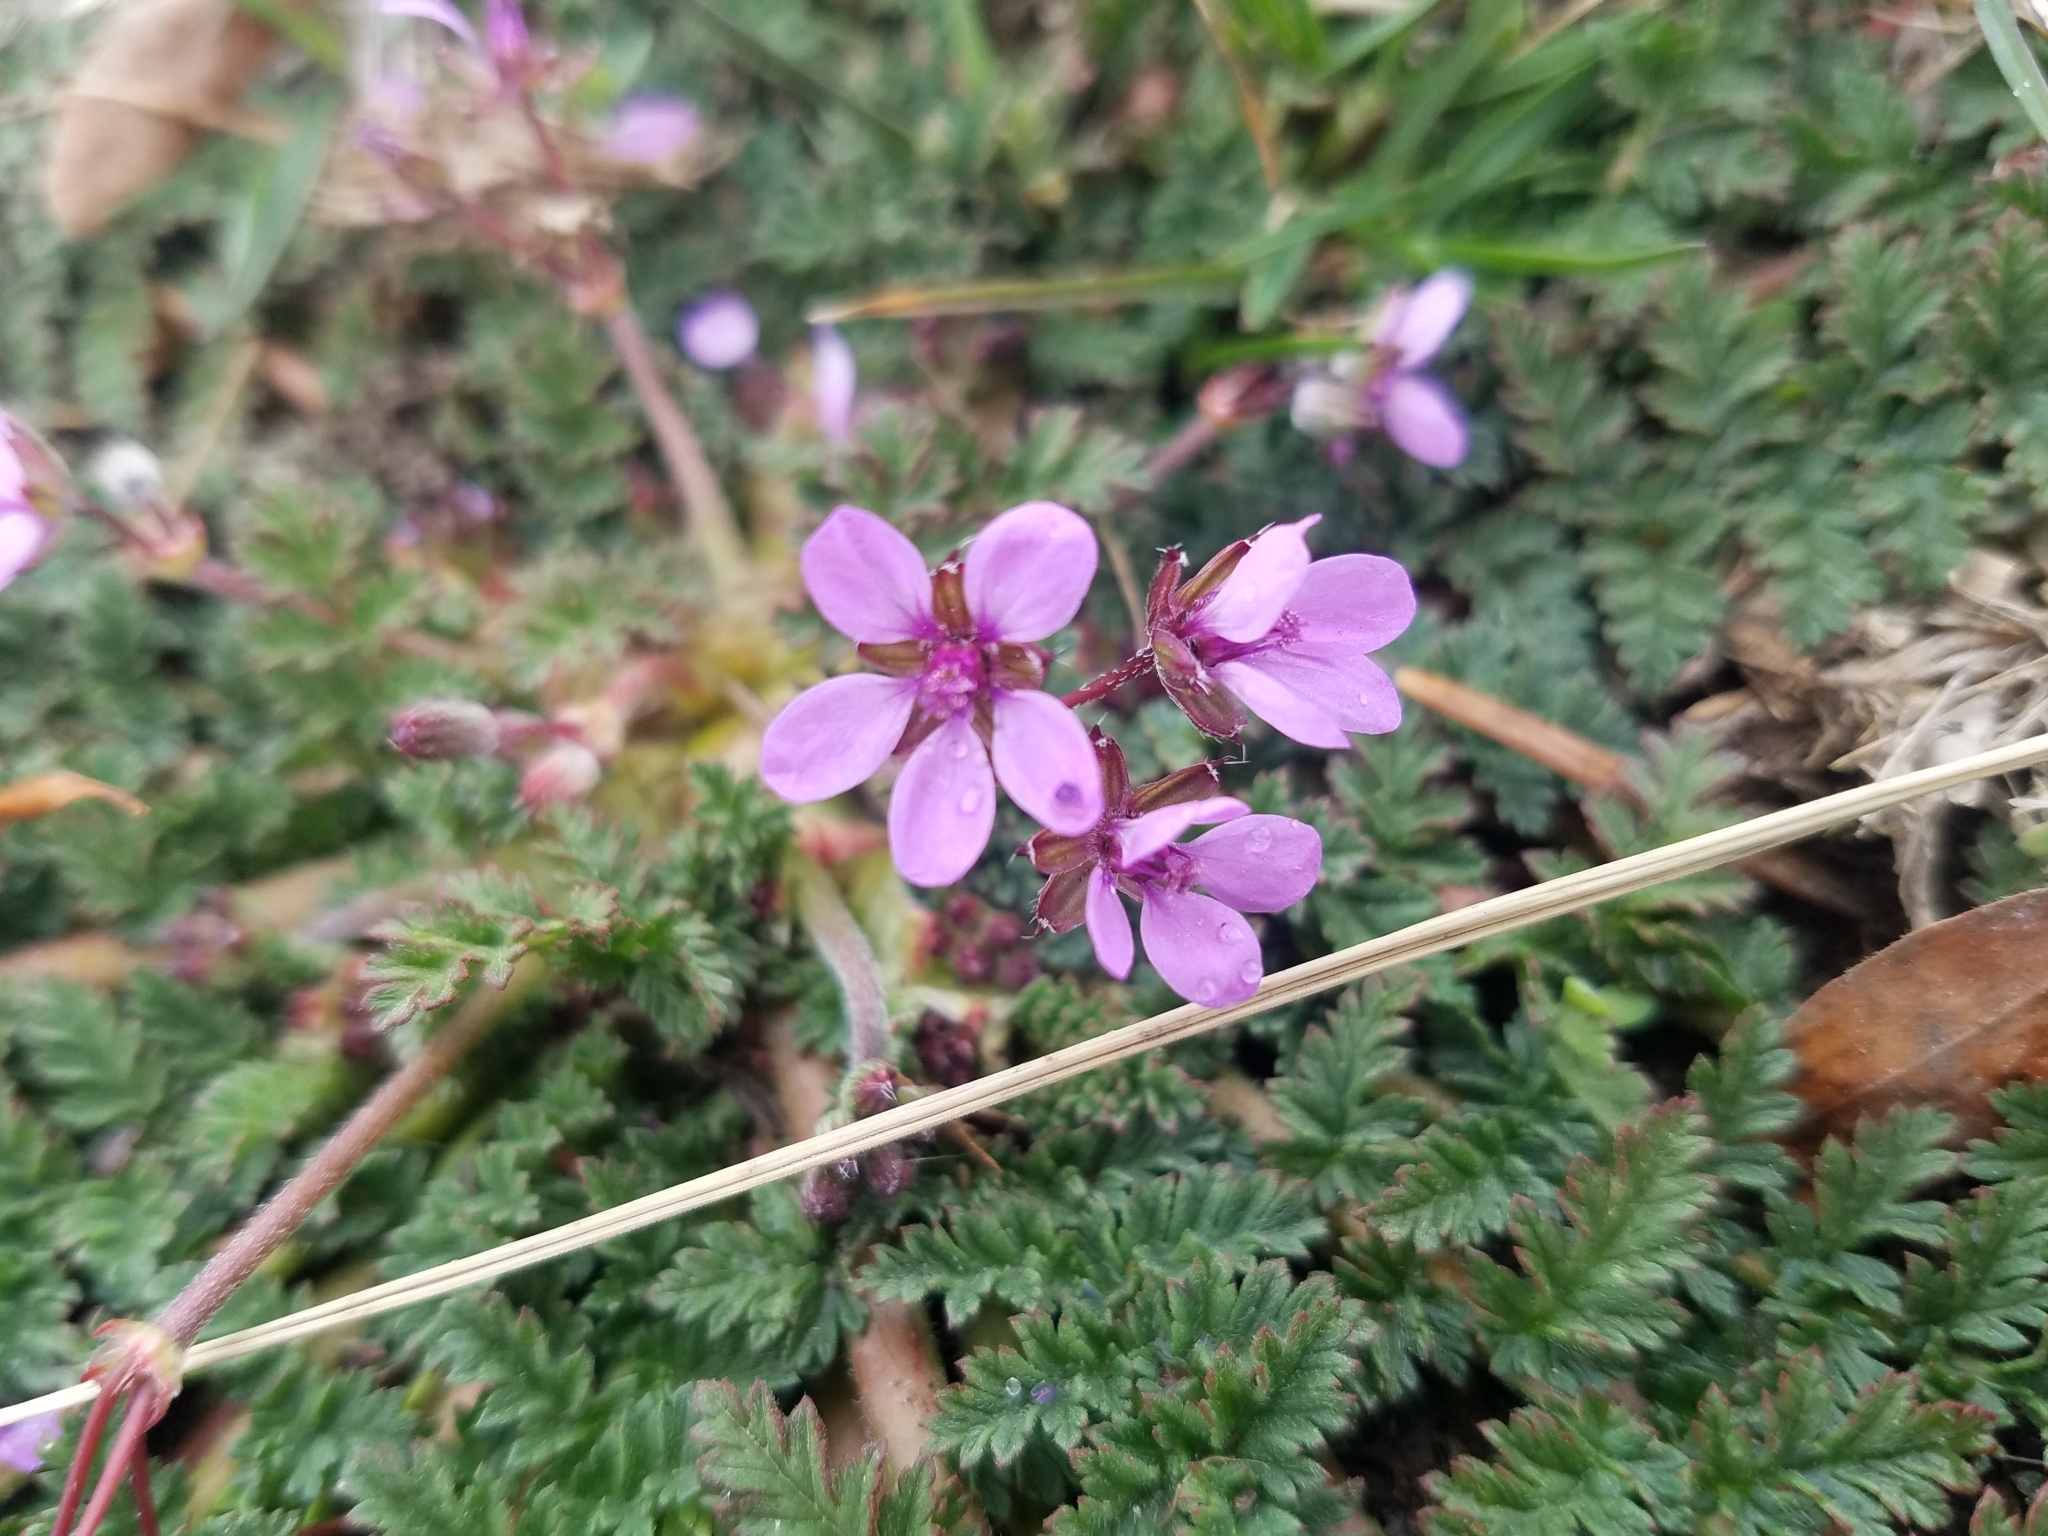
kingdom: Plantae
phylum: Tracheophyta
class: Magnoliopsida
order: Geraniales
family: Geraniaceae
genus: Erodium
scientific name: Erodium cicutarium
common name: Common stork's-bill
